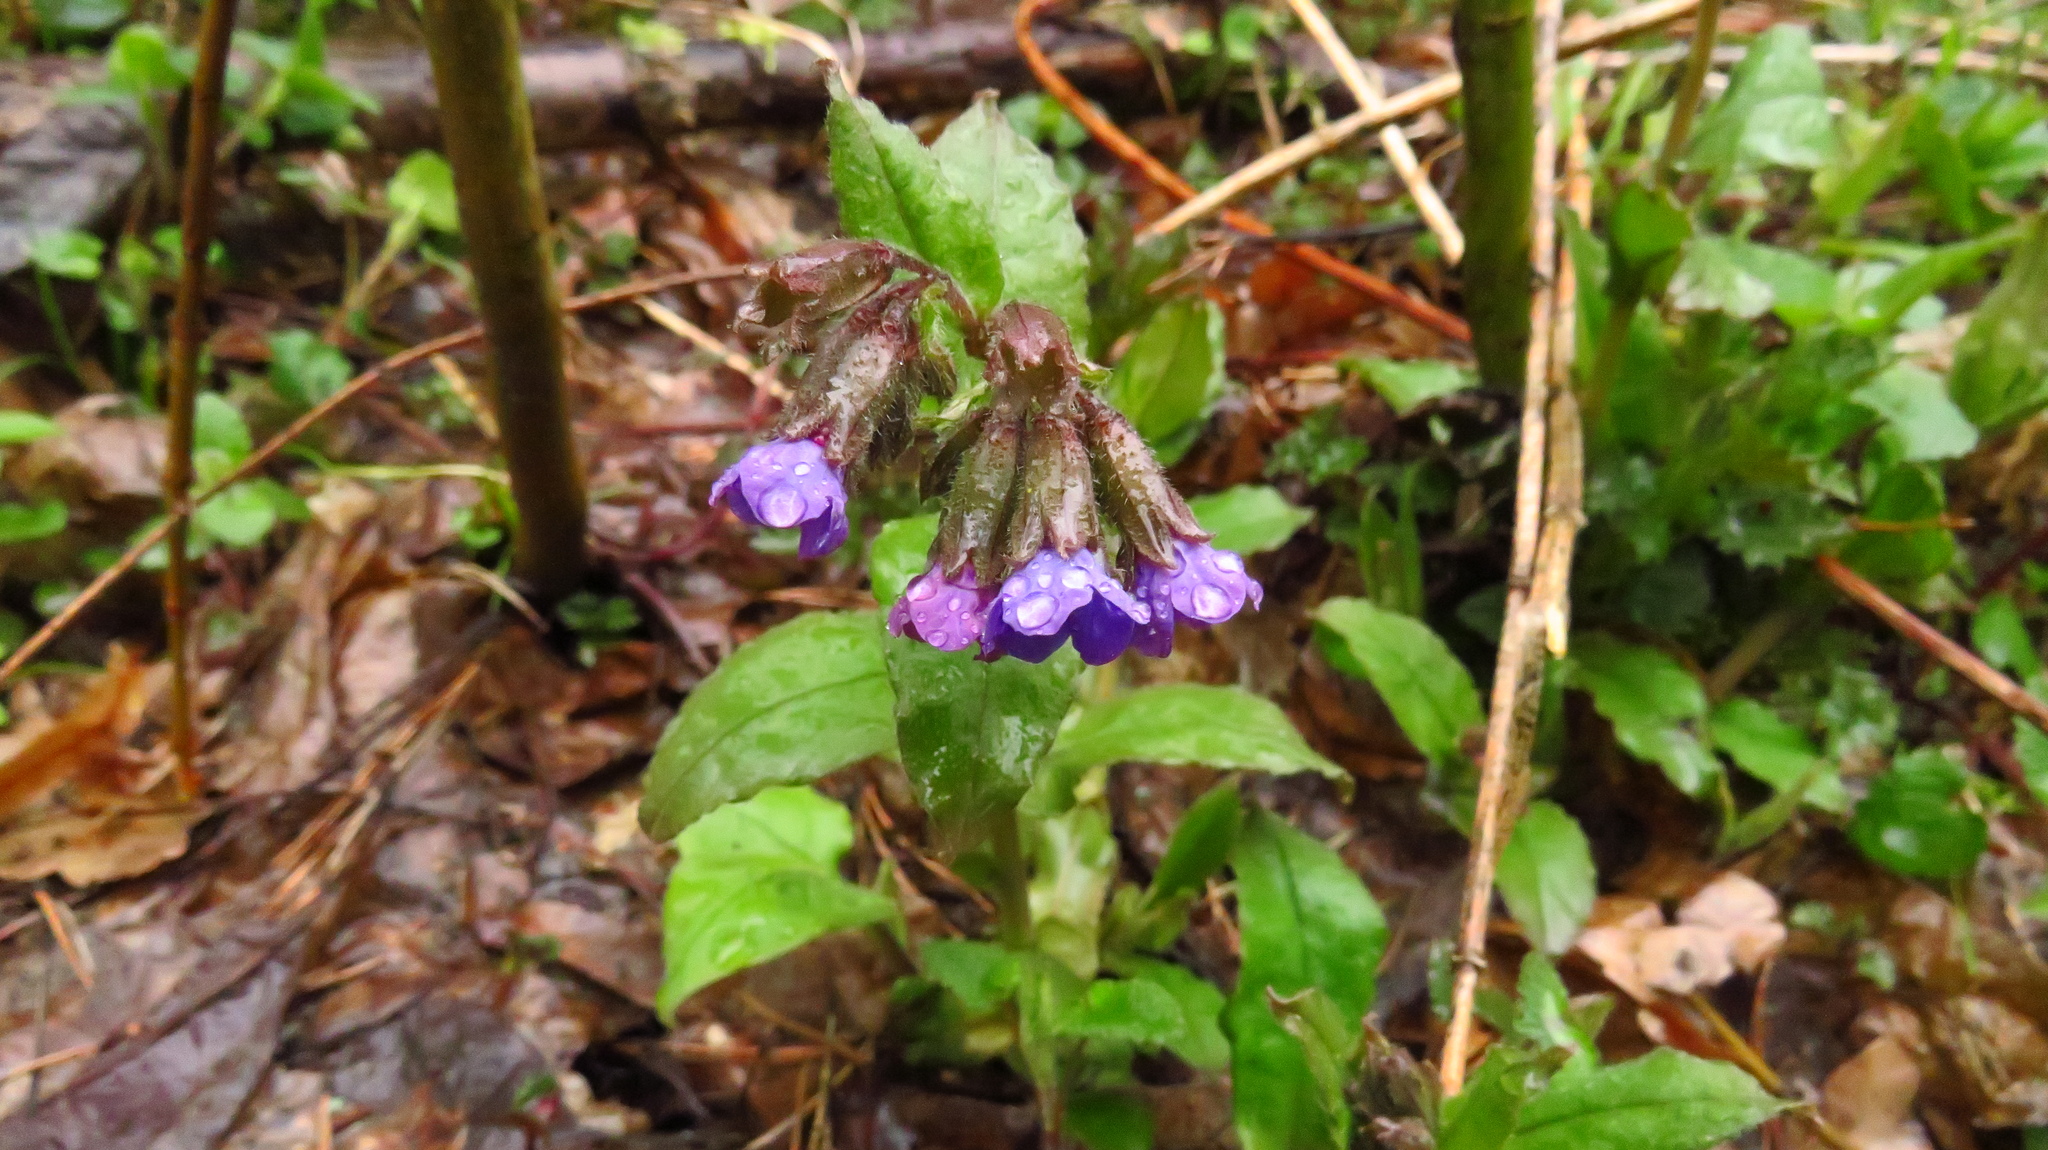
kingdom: Plantae
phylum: Tracheophyta
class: Magnoliopsida
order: Boraginales
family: Boraginaceae
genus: Pulmonaria
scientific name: Pulmonaria obscura
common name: Suffolk lungwort
